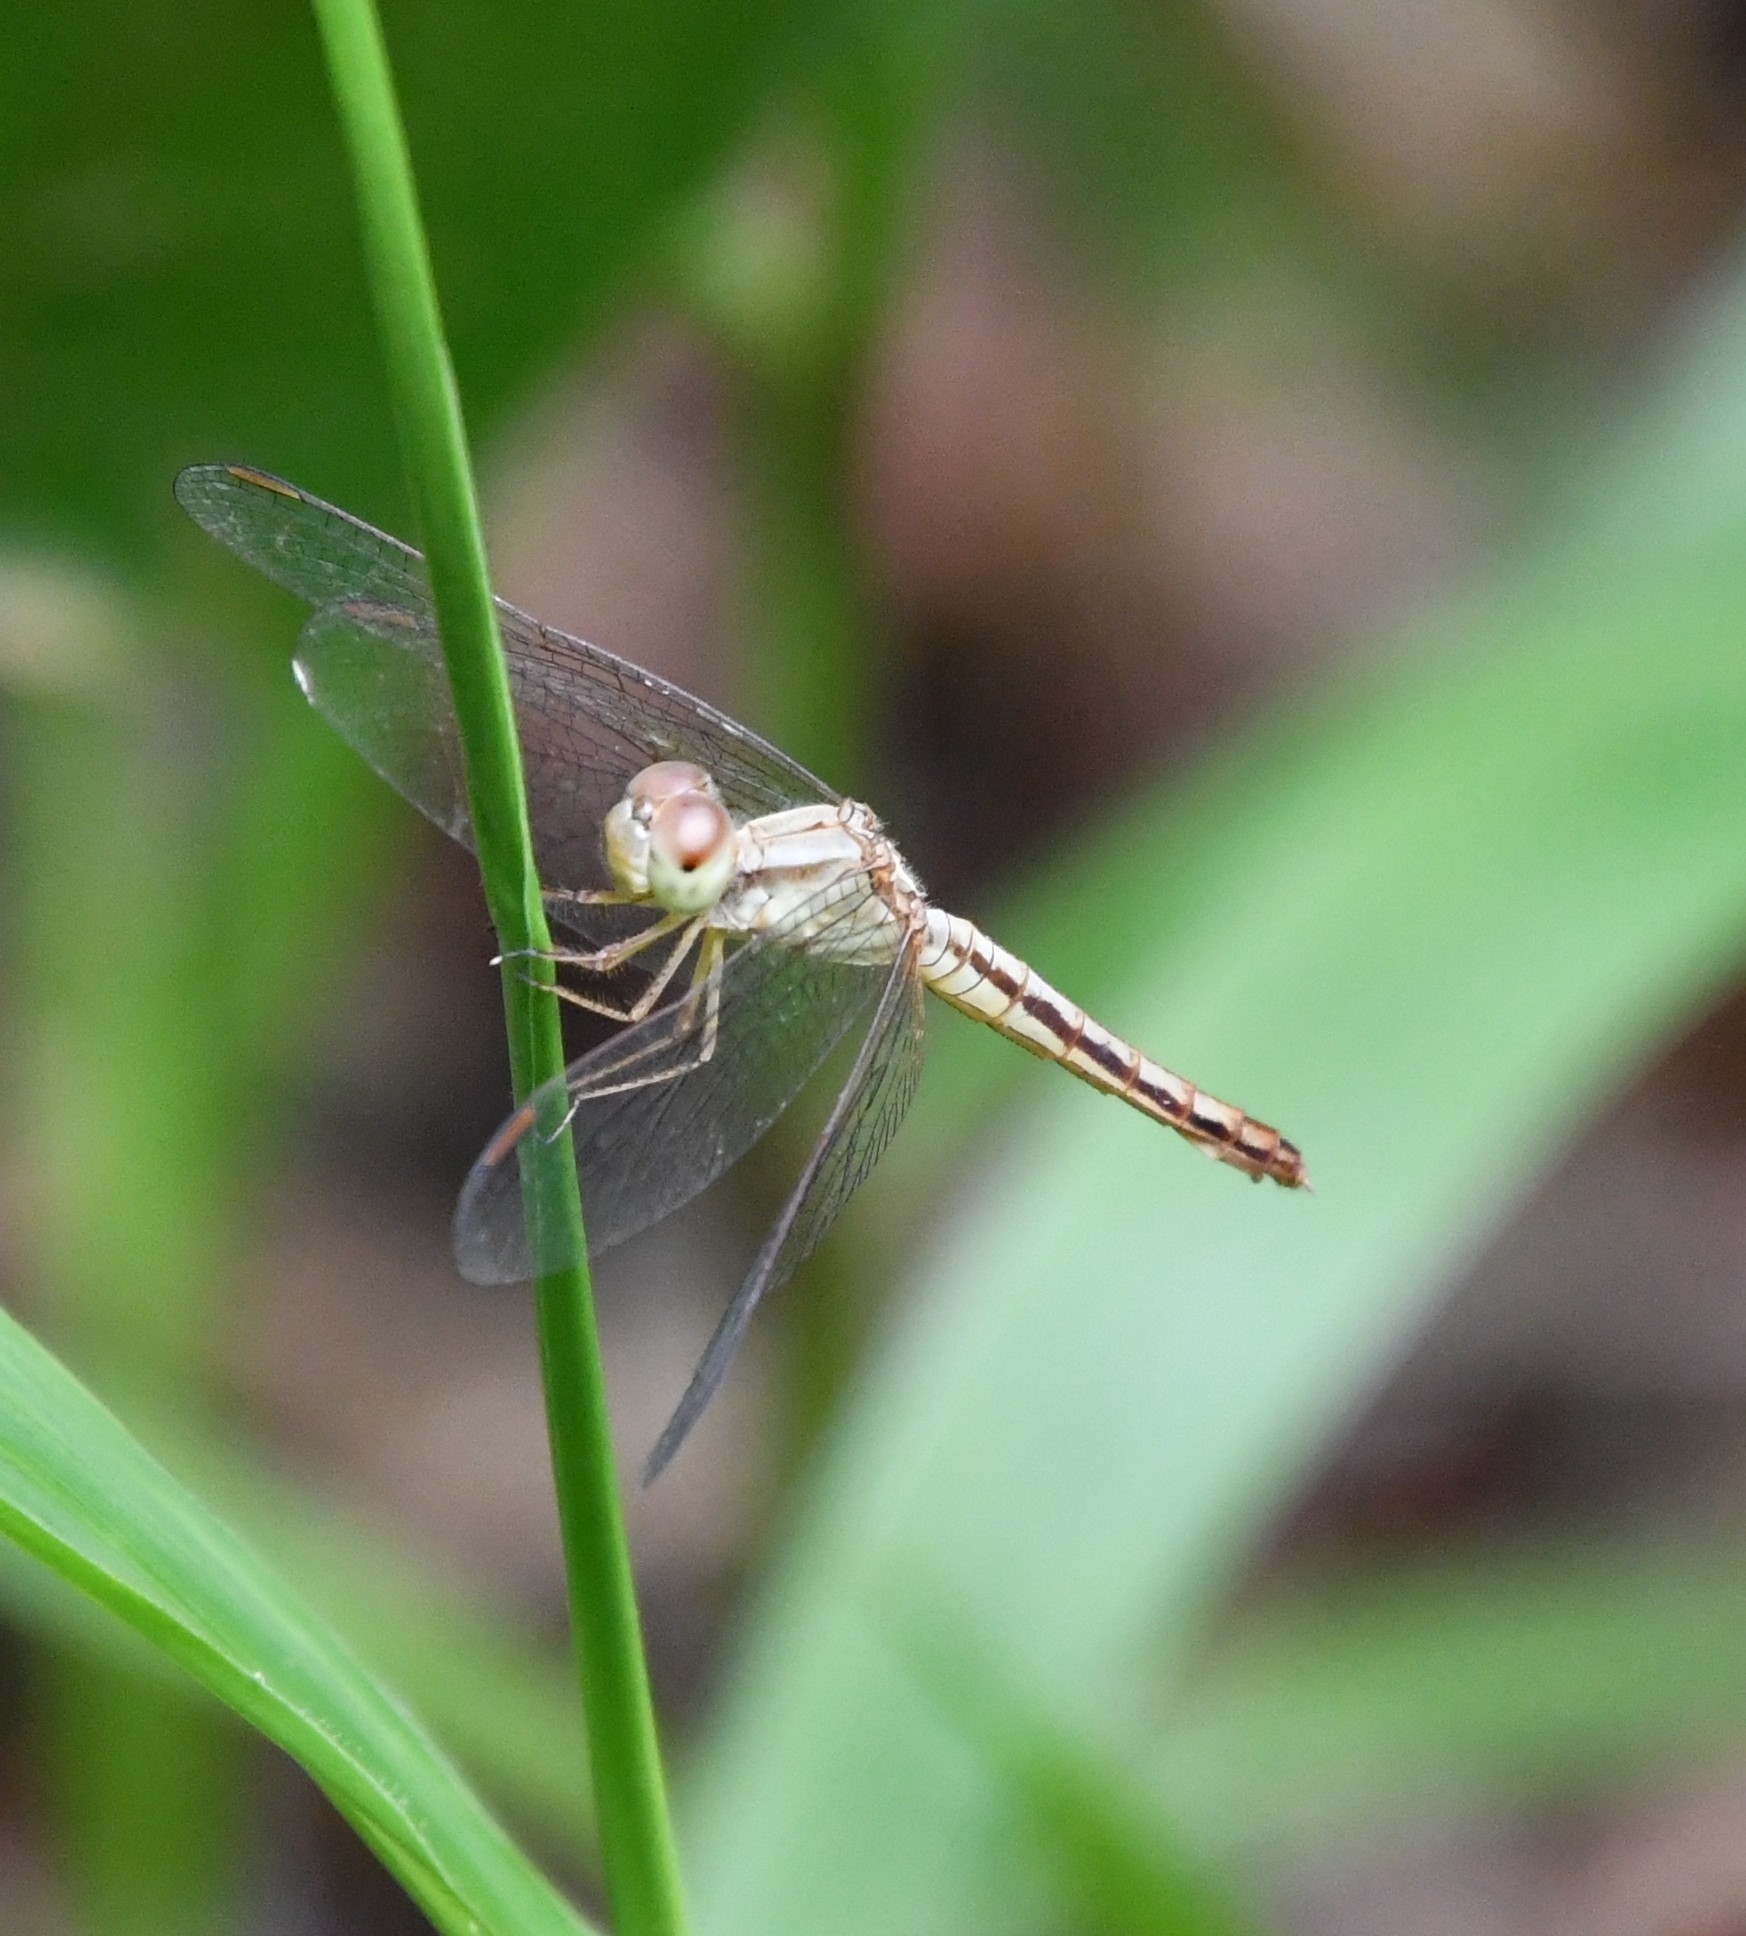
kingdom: Animalia
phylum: Arthropoda
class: Insecta
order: Odonata
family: Libellulidae
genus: Neurothemis
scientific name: Neurothemis intermedia
